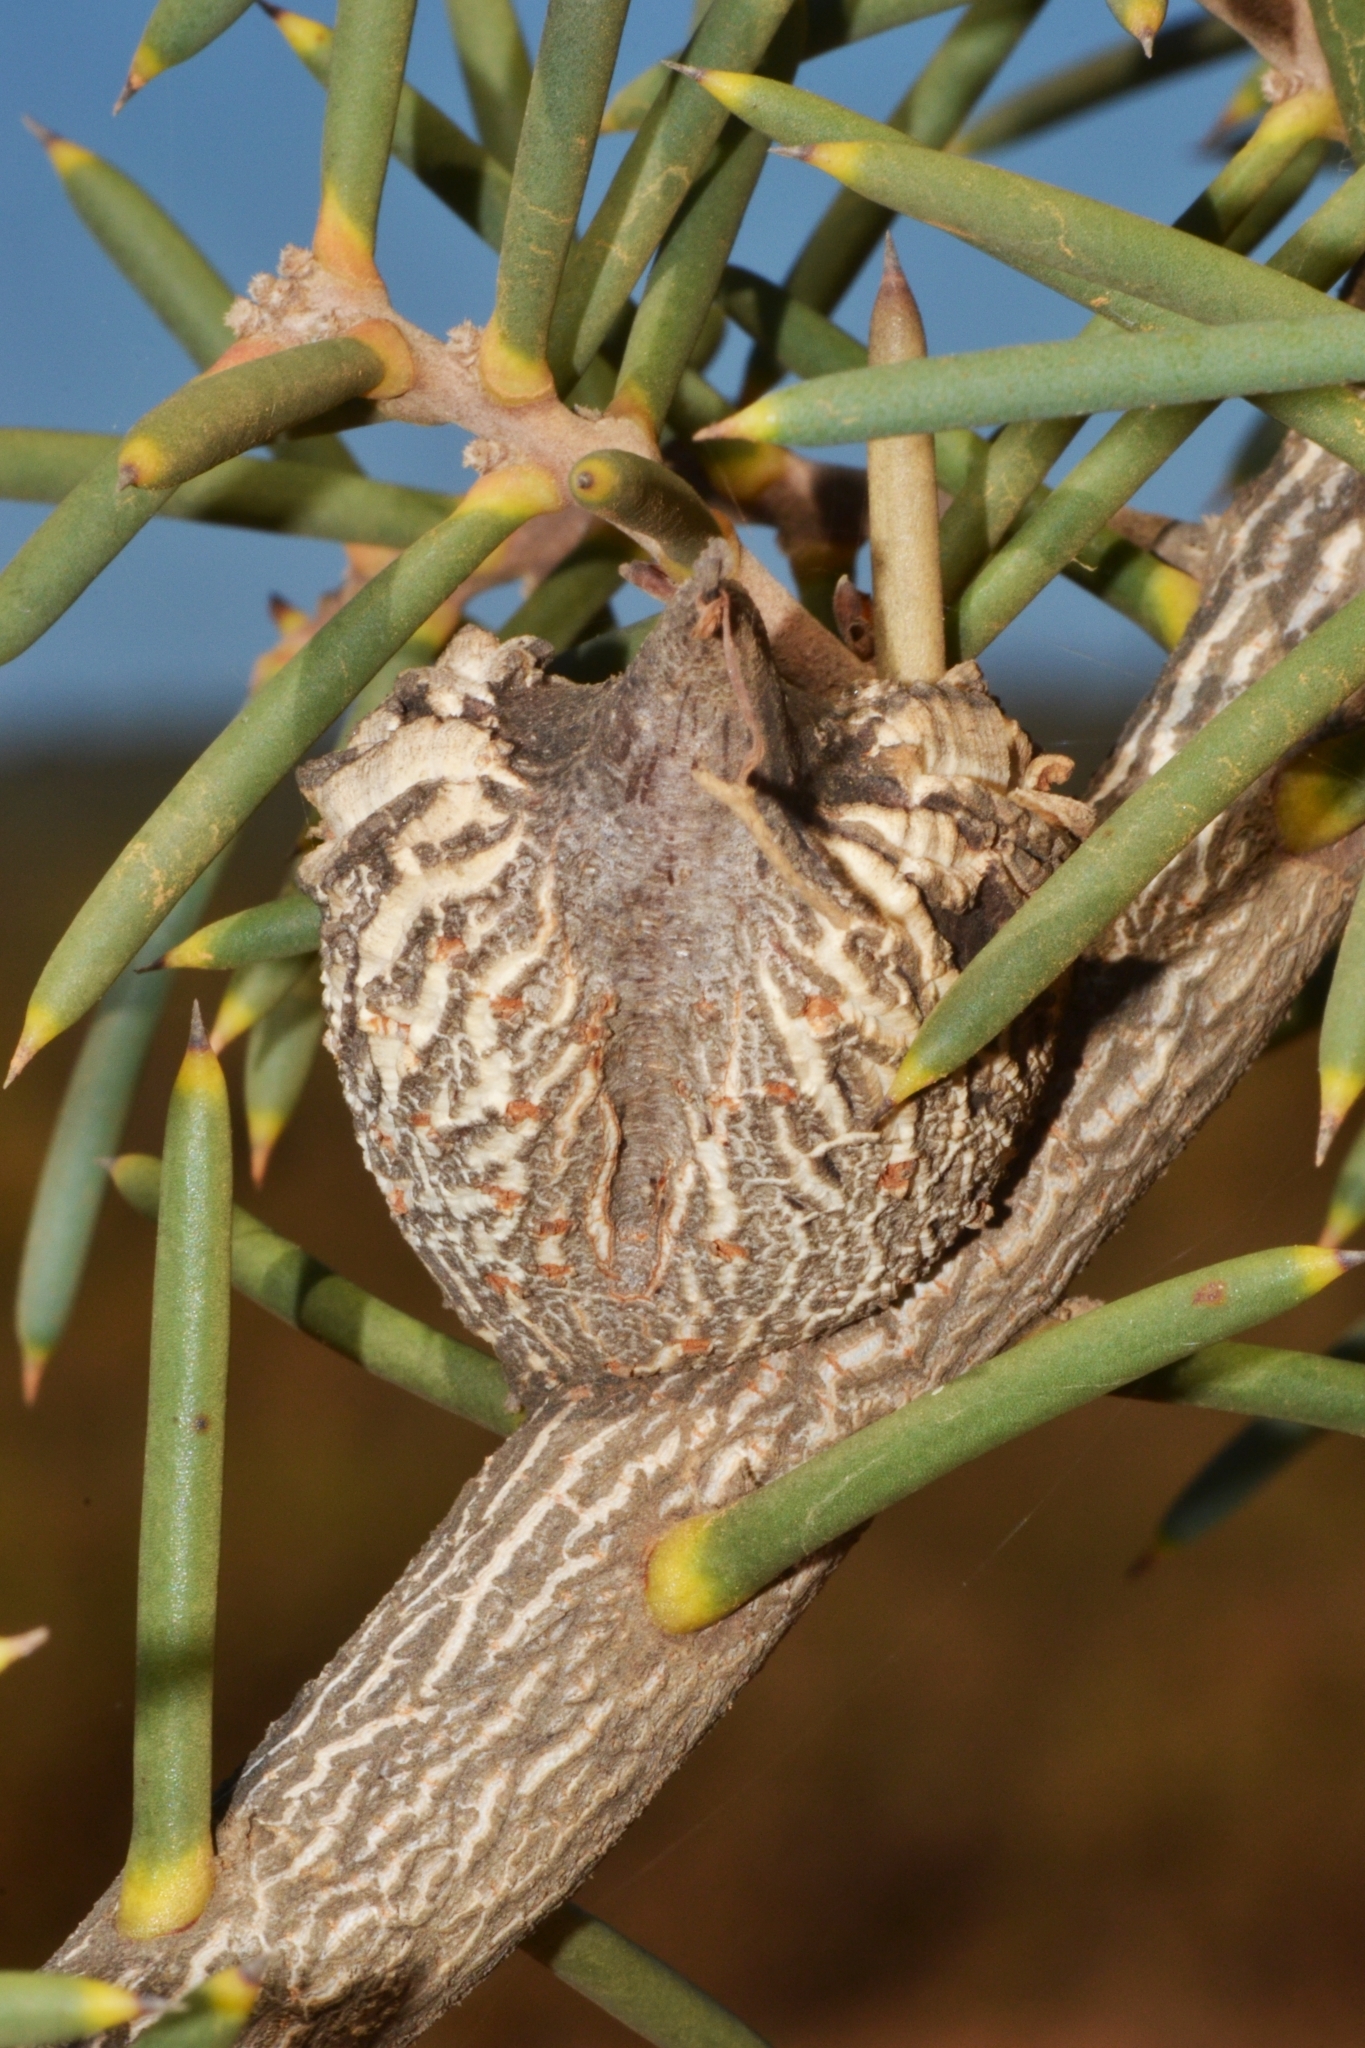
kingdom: Plantae
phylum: Tracheophyta
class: Magnoliopsida
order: Proteales
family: Proteaceae
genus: Hakea
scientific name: Hakea psilorrhyncha
